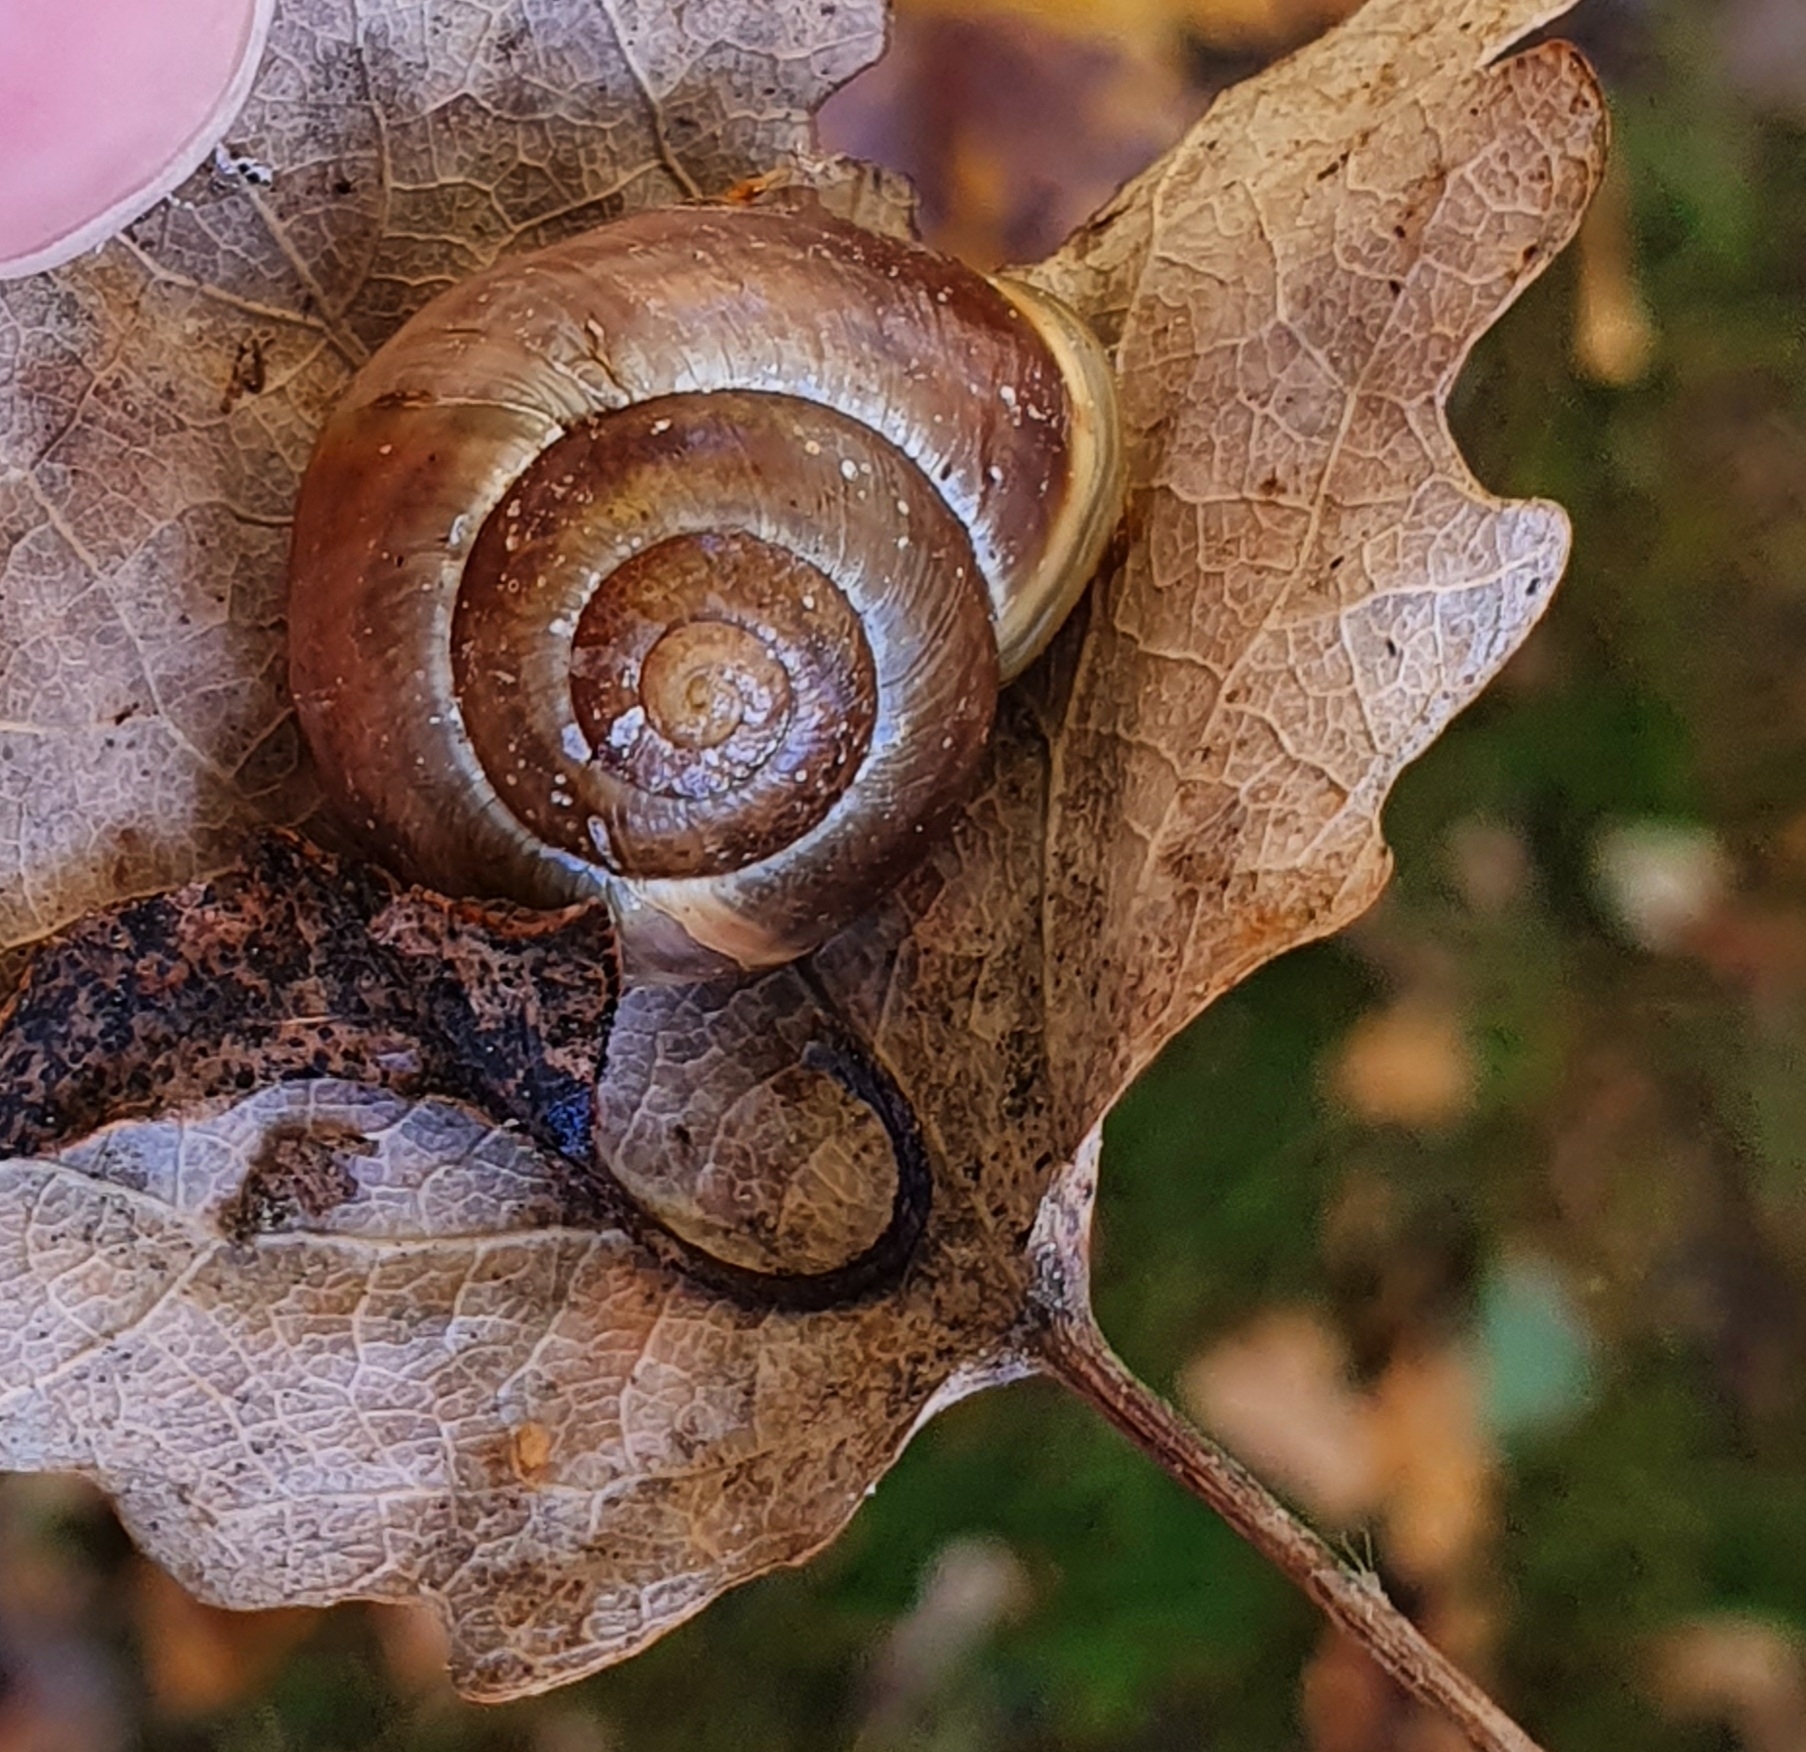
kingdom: Animalia
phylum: Mollusca
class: Gastropoda
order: Stylommatophora
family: Helicidae
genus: Cepaea
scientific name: Cepaea hortensis
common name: White-lip gardensnail
